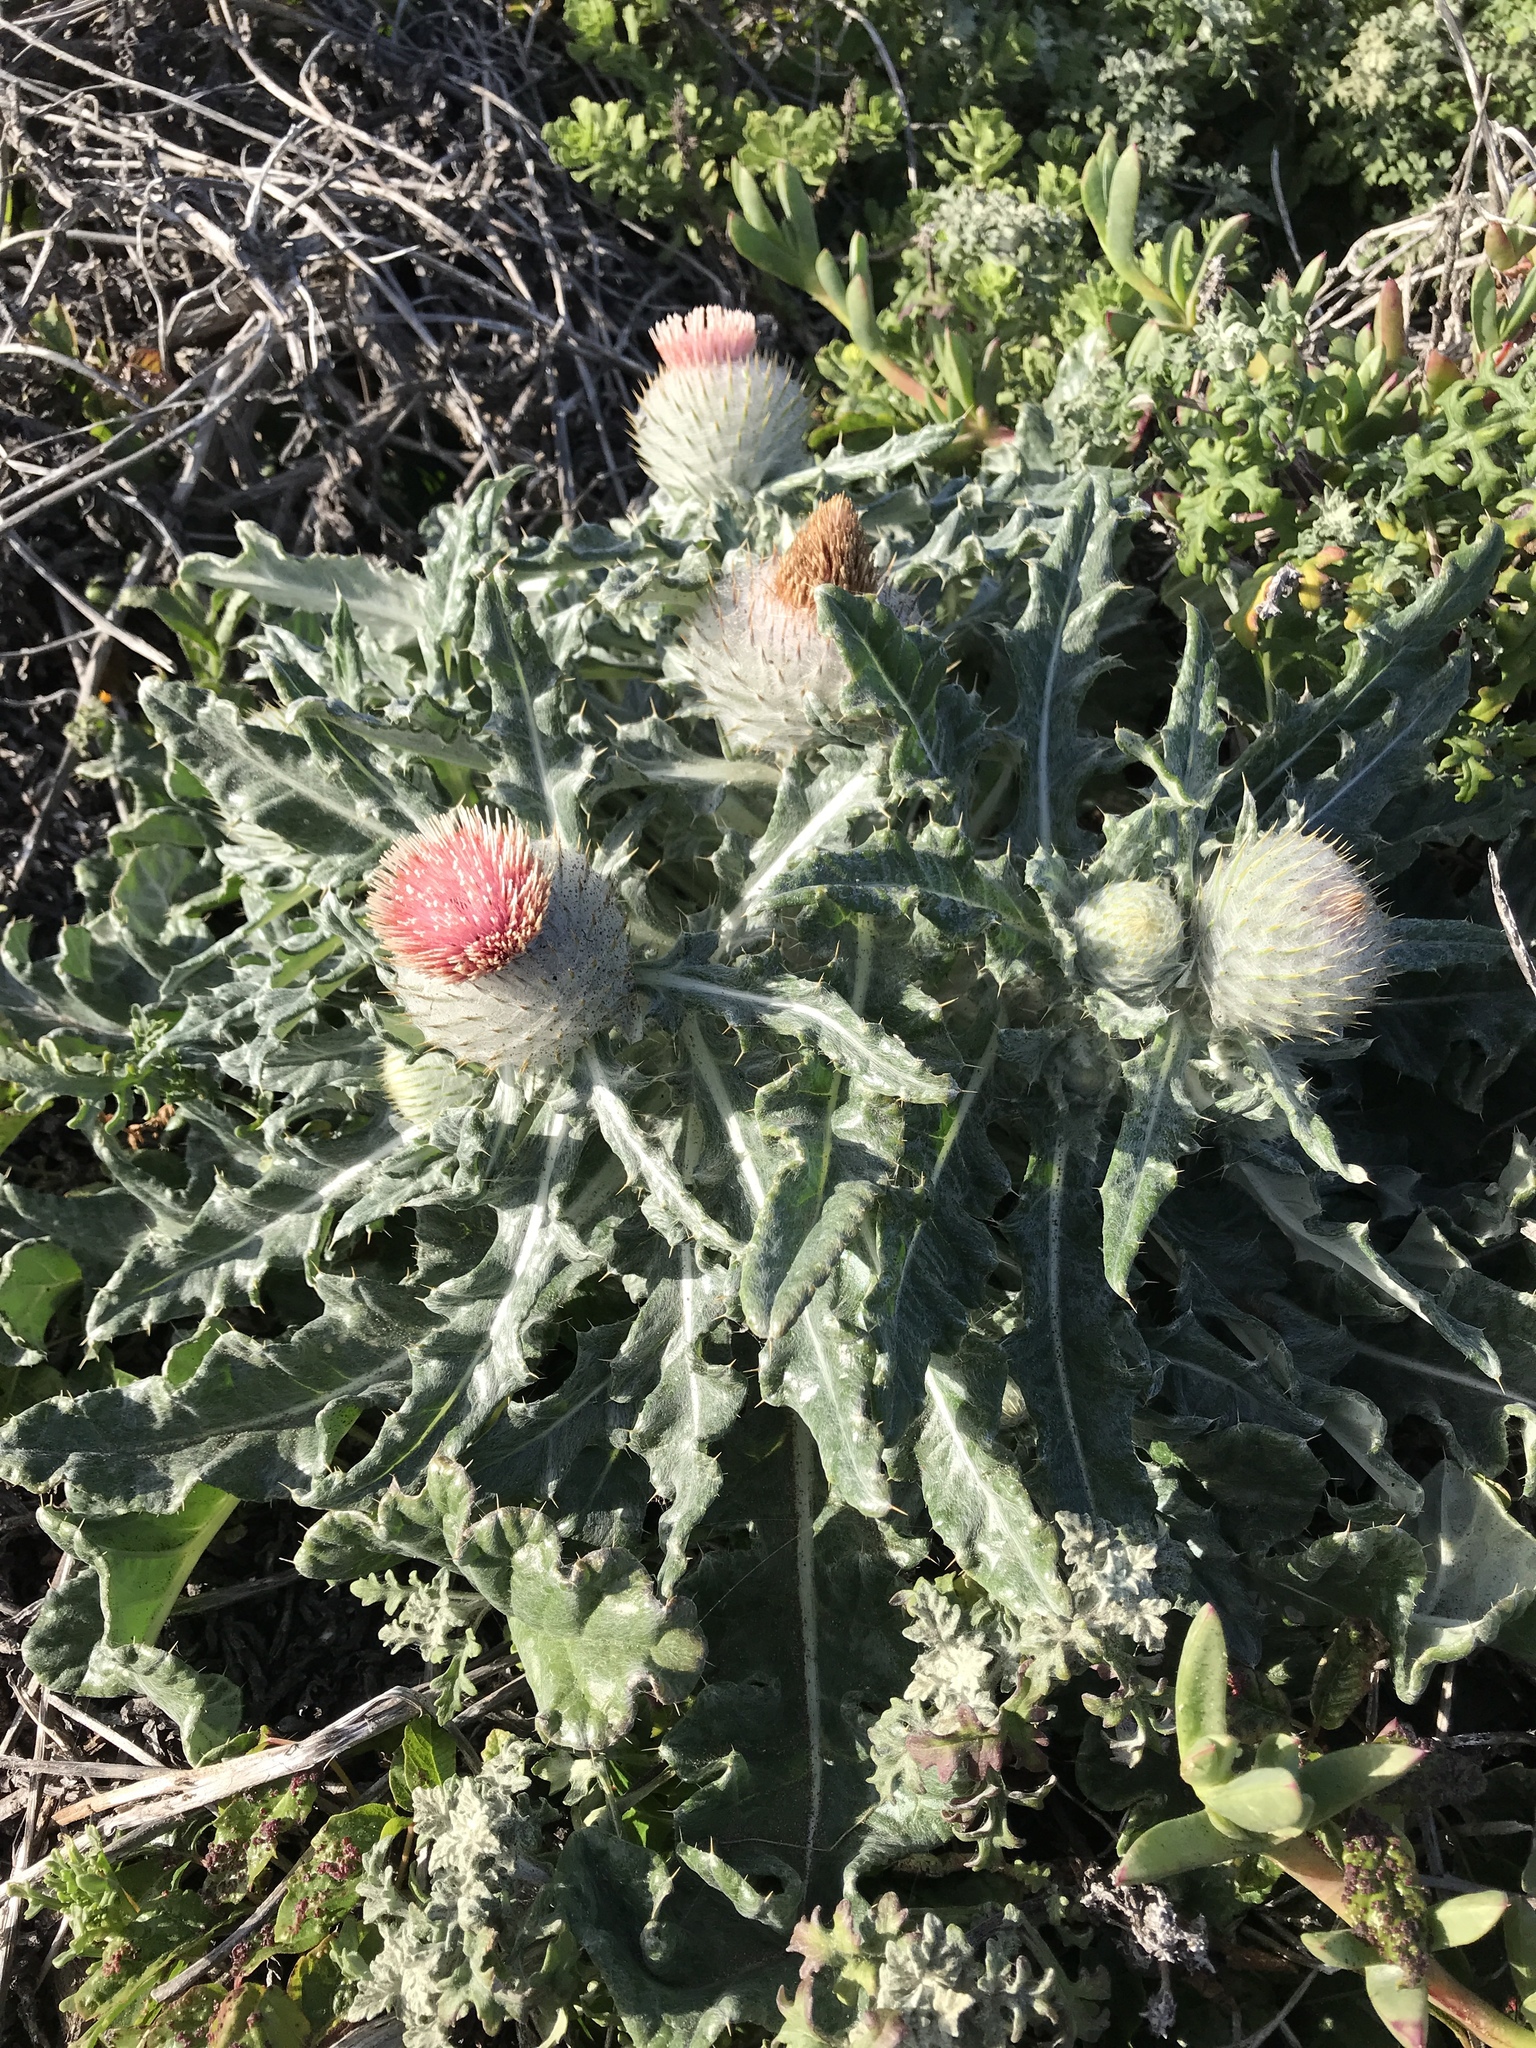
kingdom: Plantae
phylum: Tracheophyta
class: Magnoliopsida
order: Asterales
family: Asteraceae
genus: Cirsium
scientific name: Cirsium occidentale
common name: Western thistle
